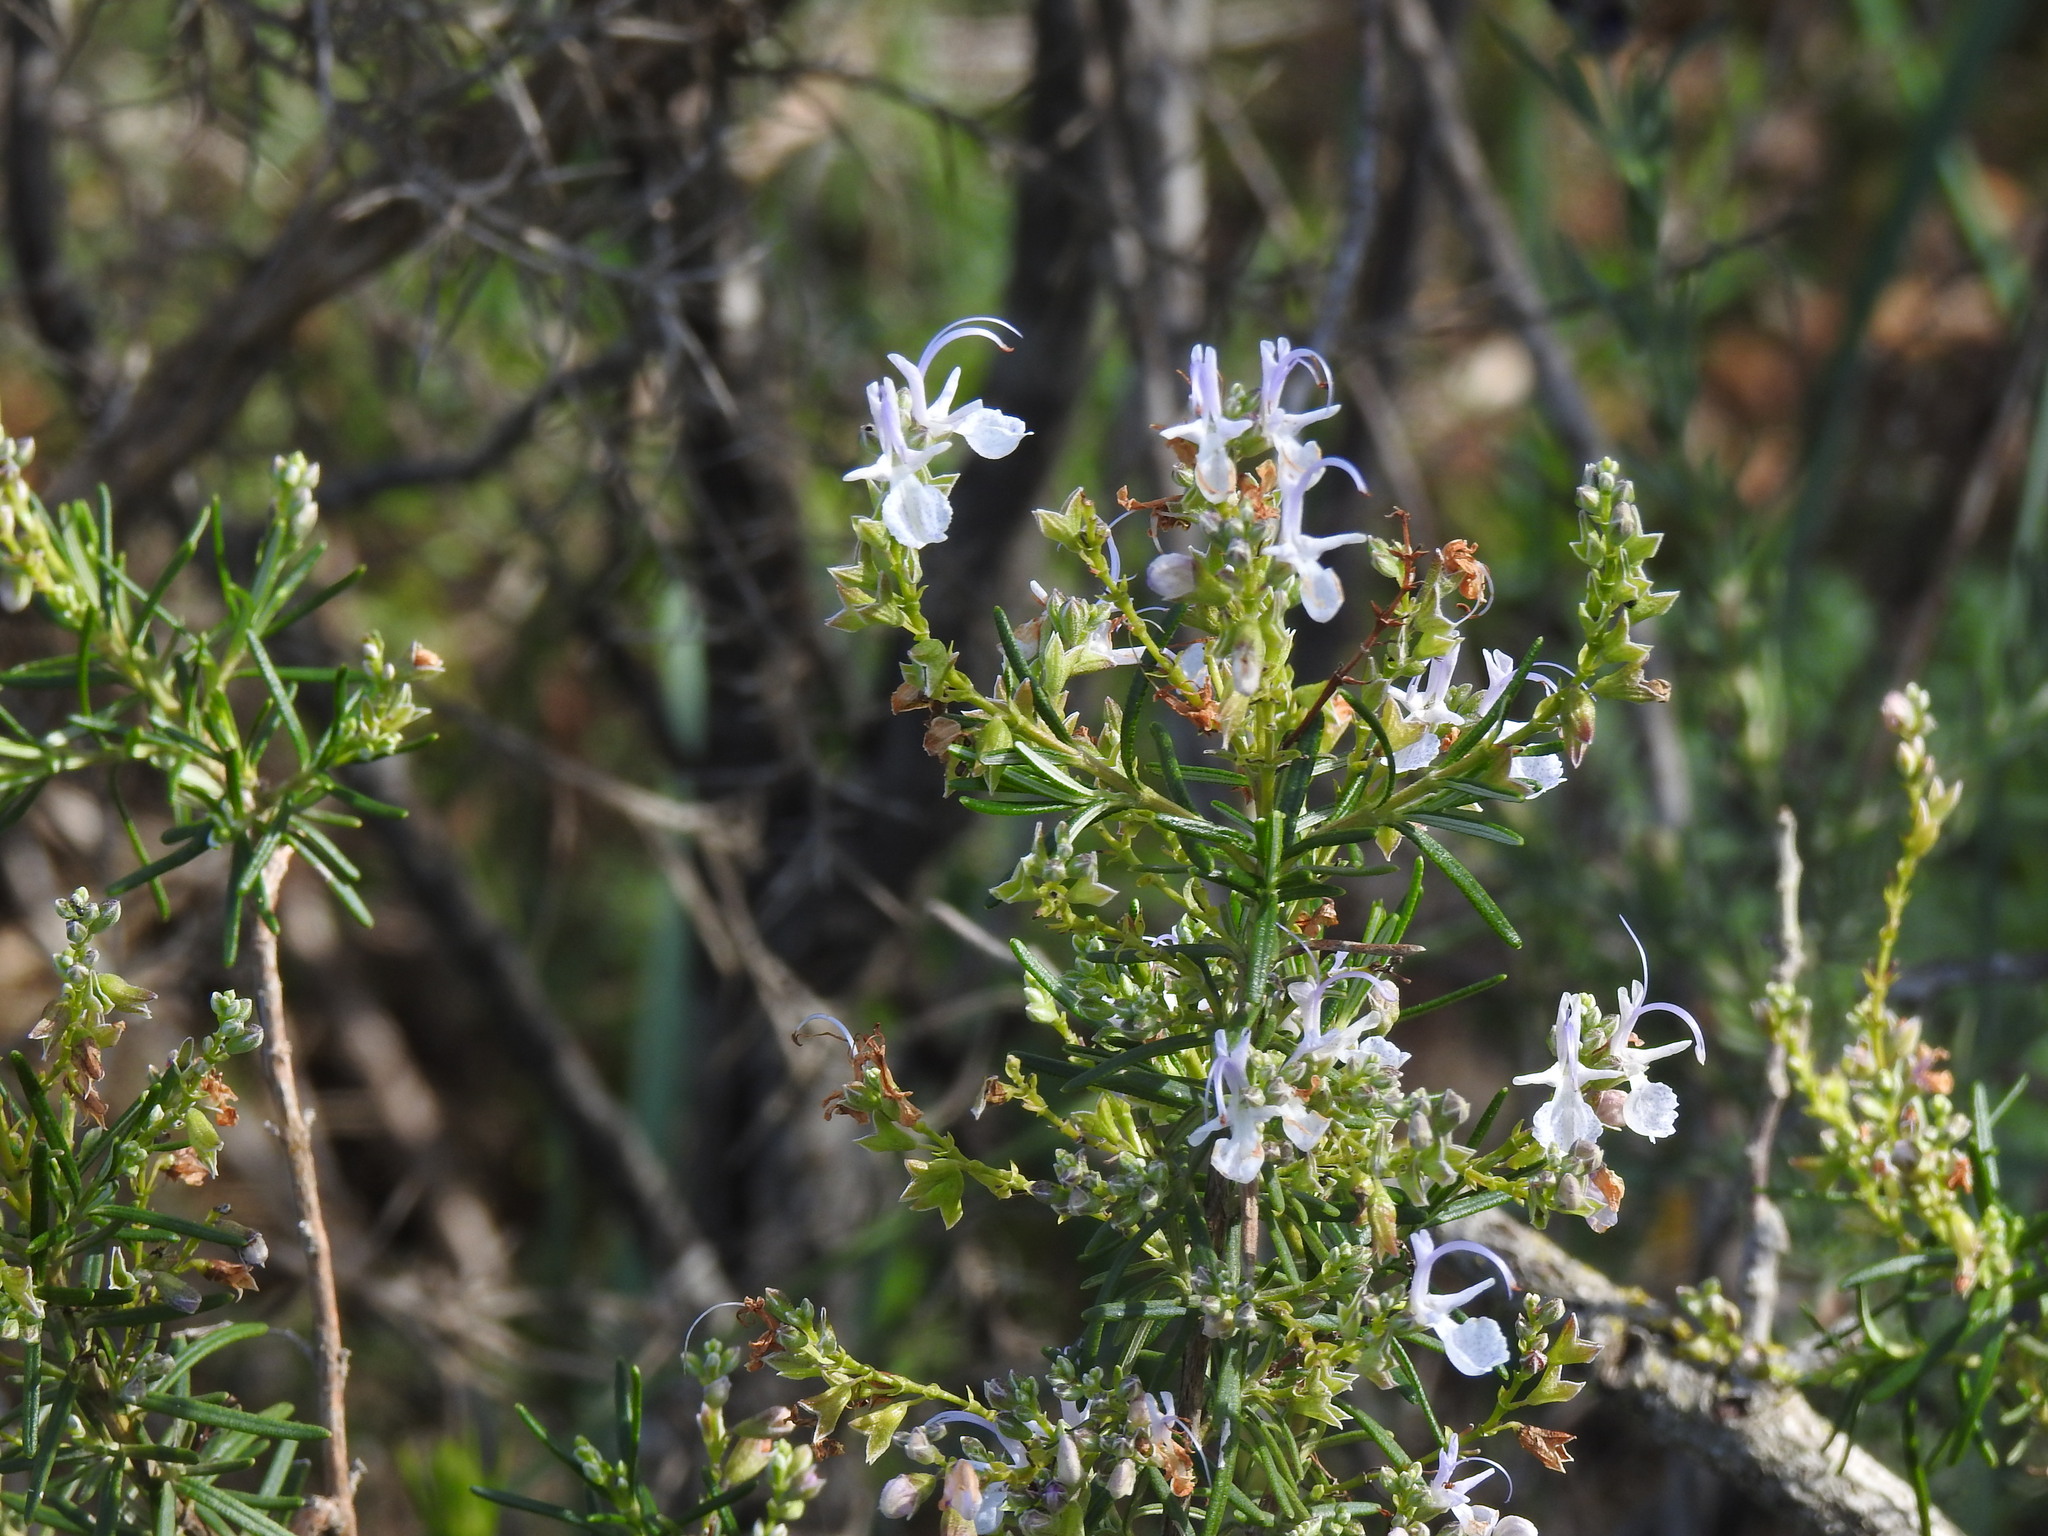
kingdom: Plantae
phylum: Tracheophyta
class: Magnoliopsida
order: Lamiales
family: Lamiaceae
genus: Salvia
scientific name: Salvia rosmarinus
